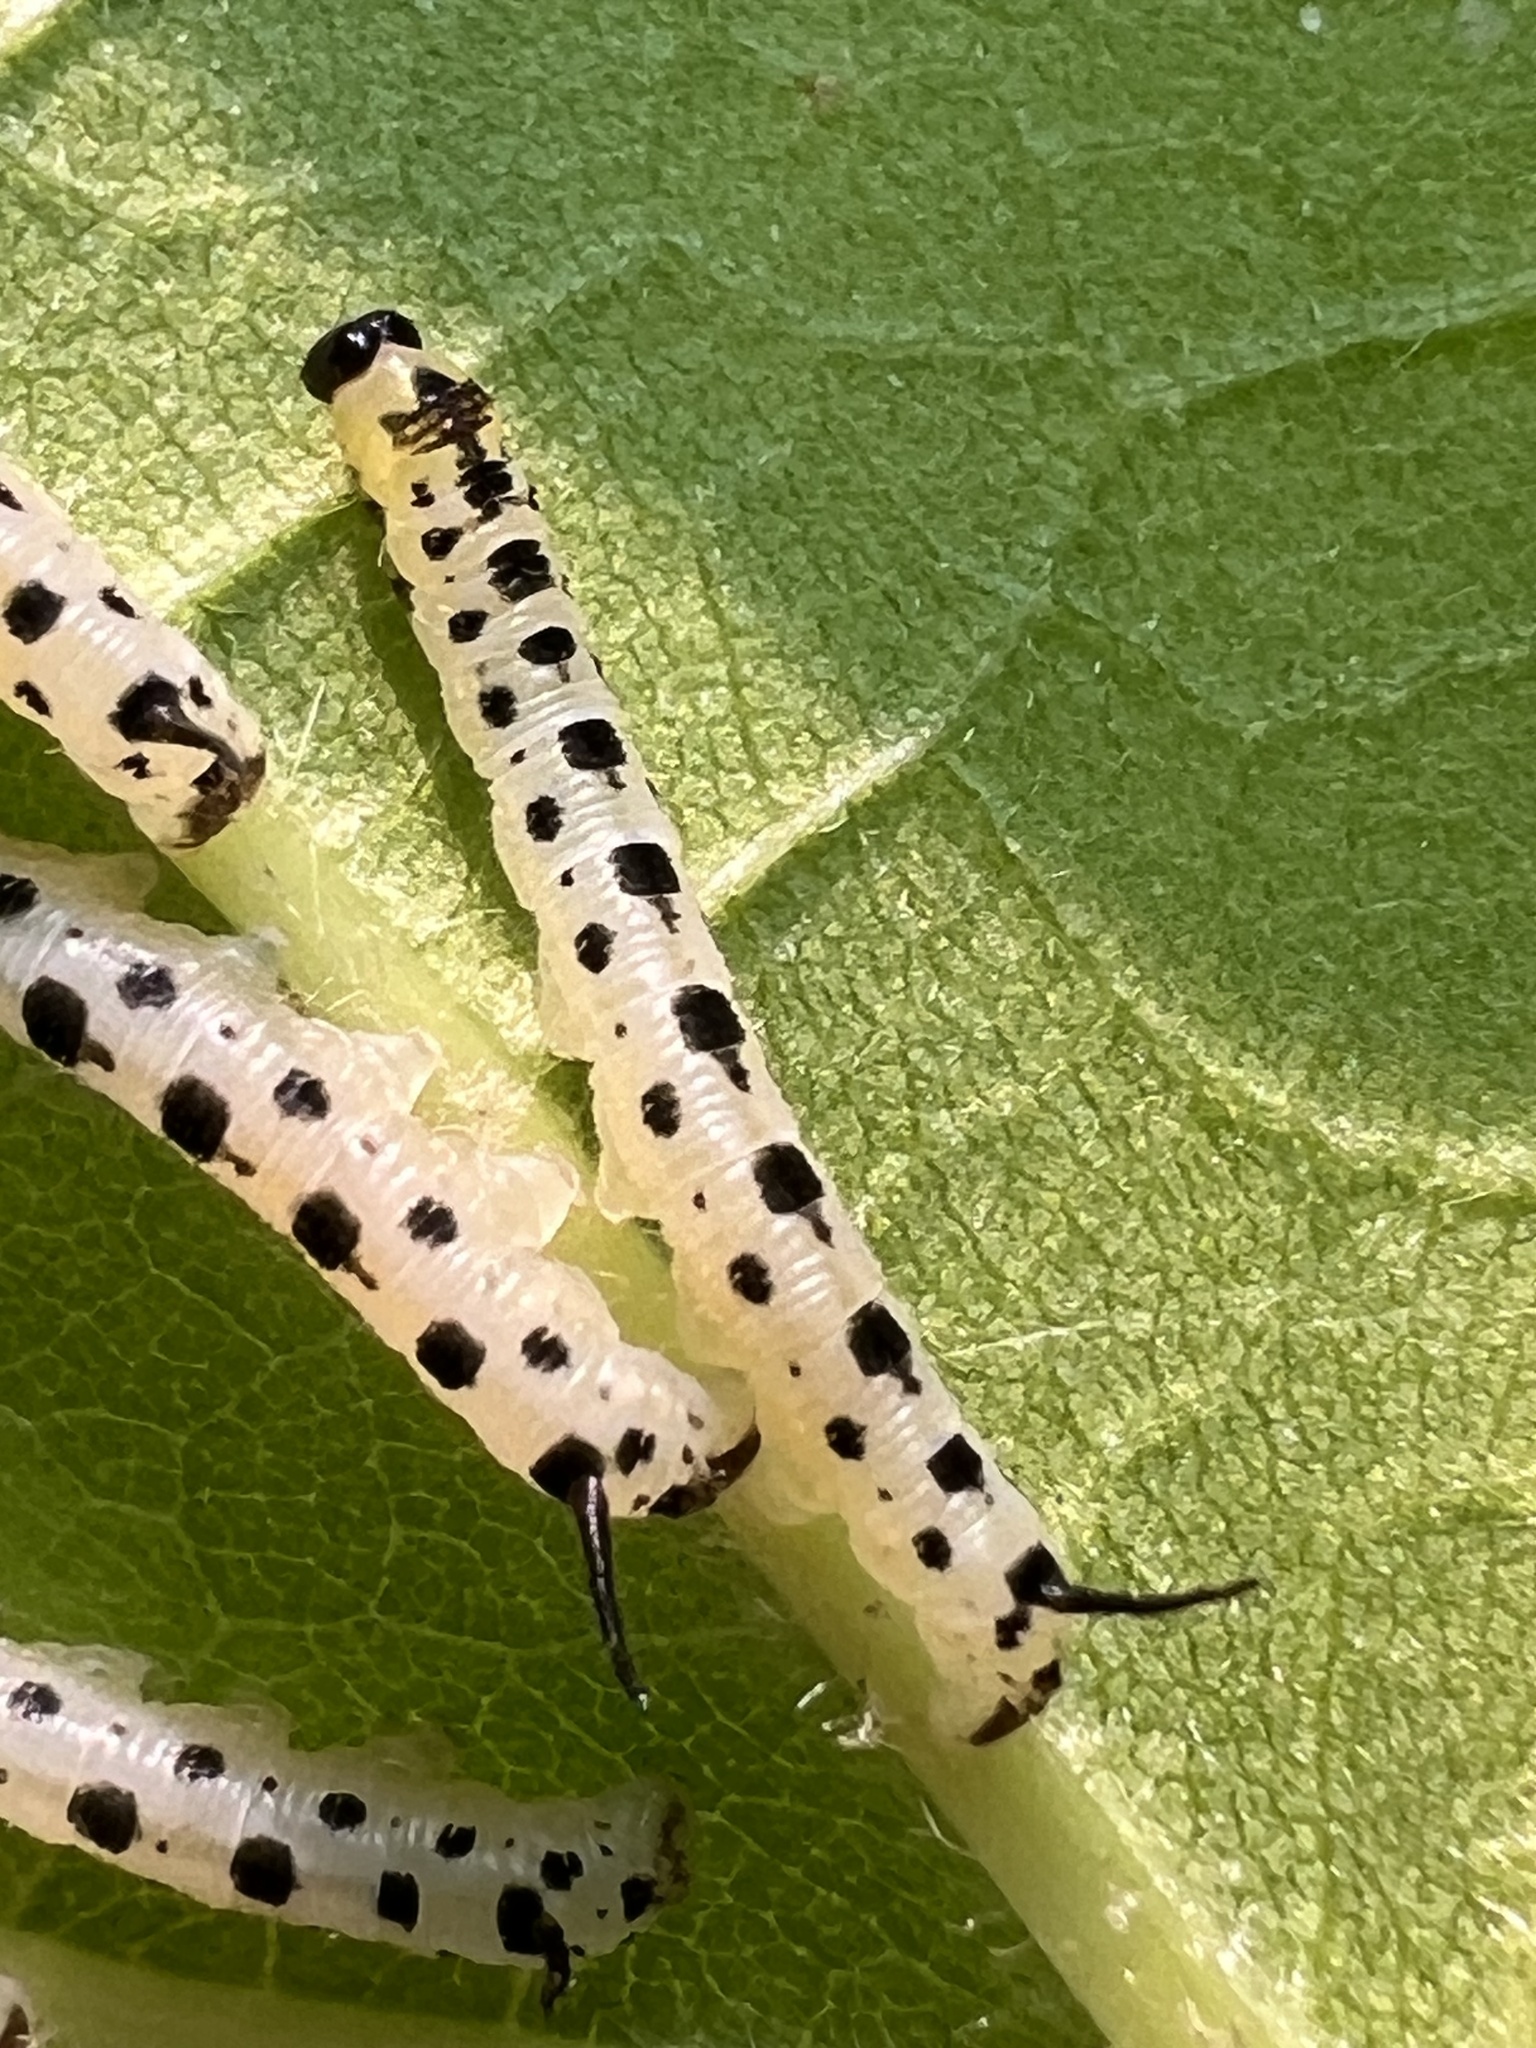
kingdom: Animalia
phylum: Arthropoda
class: Insecta
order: Lepidoptera
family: Sphingidae
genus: Ceratomia
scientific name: Ceratomia catalpae
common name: Catalpa hornworm
